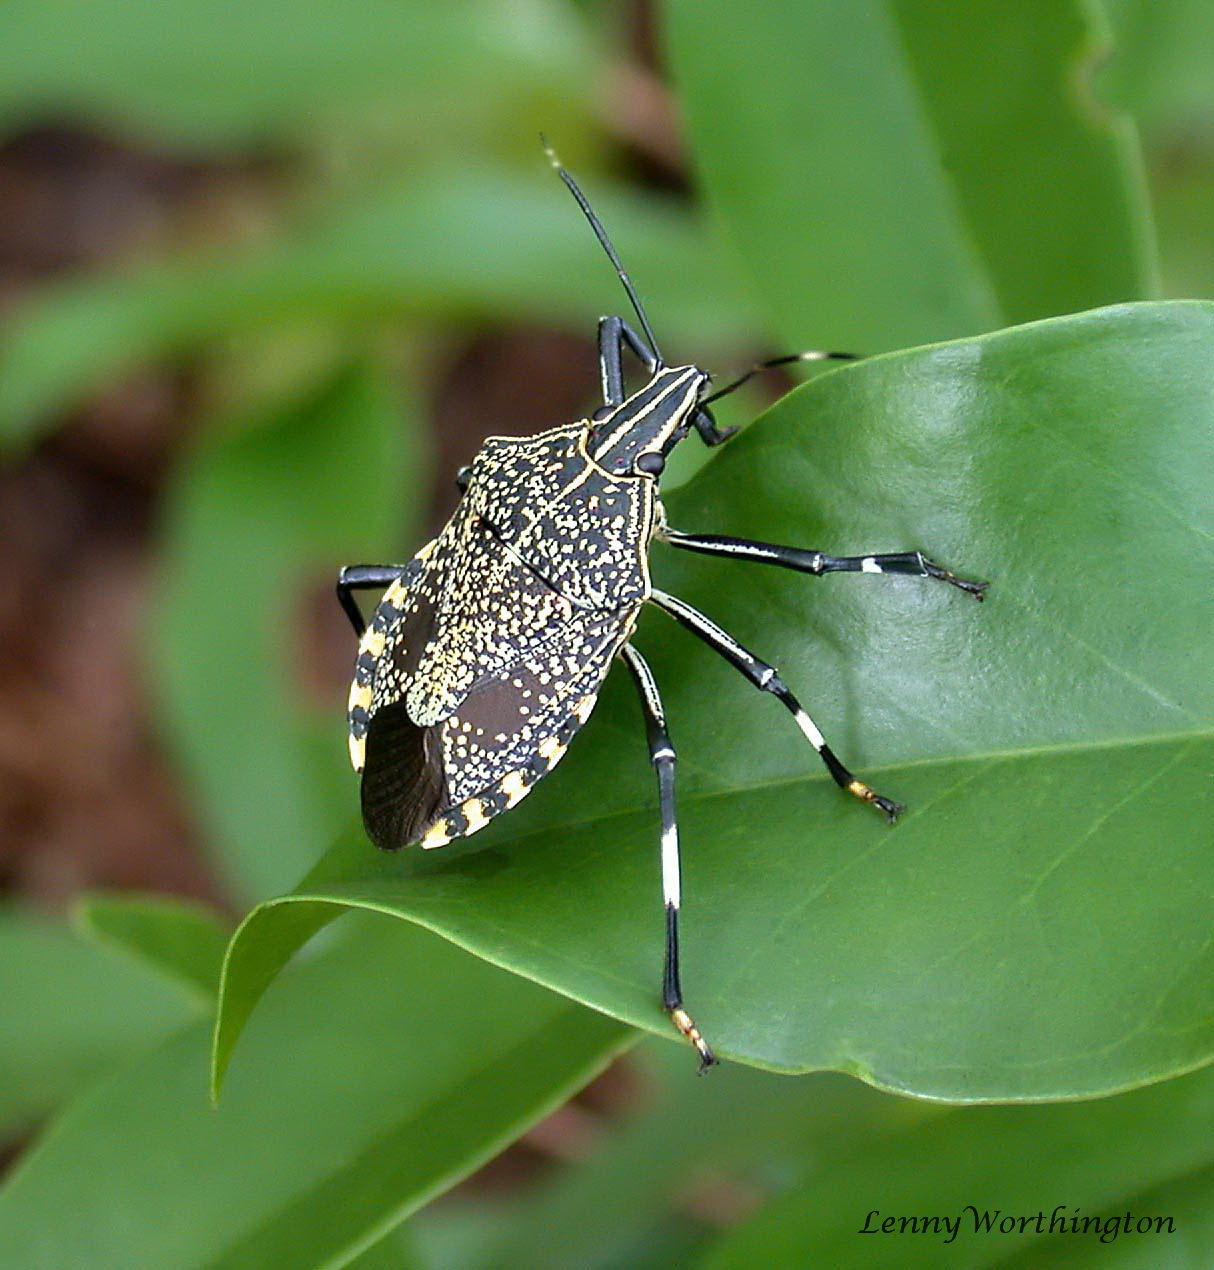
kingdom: Animalia
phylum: Arthropoda
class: Insecta
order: Hemiptera
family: Pentatomidae
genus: Erthesina
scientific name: Erthesina fullo
